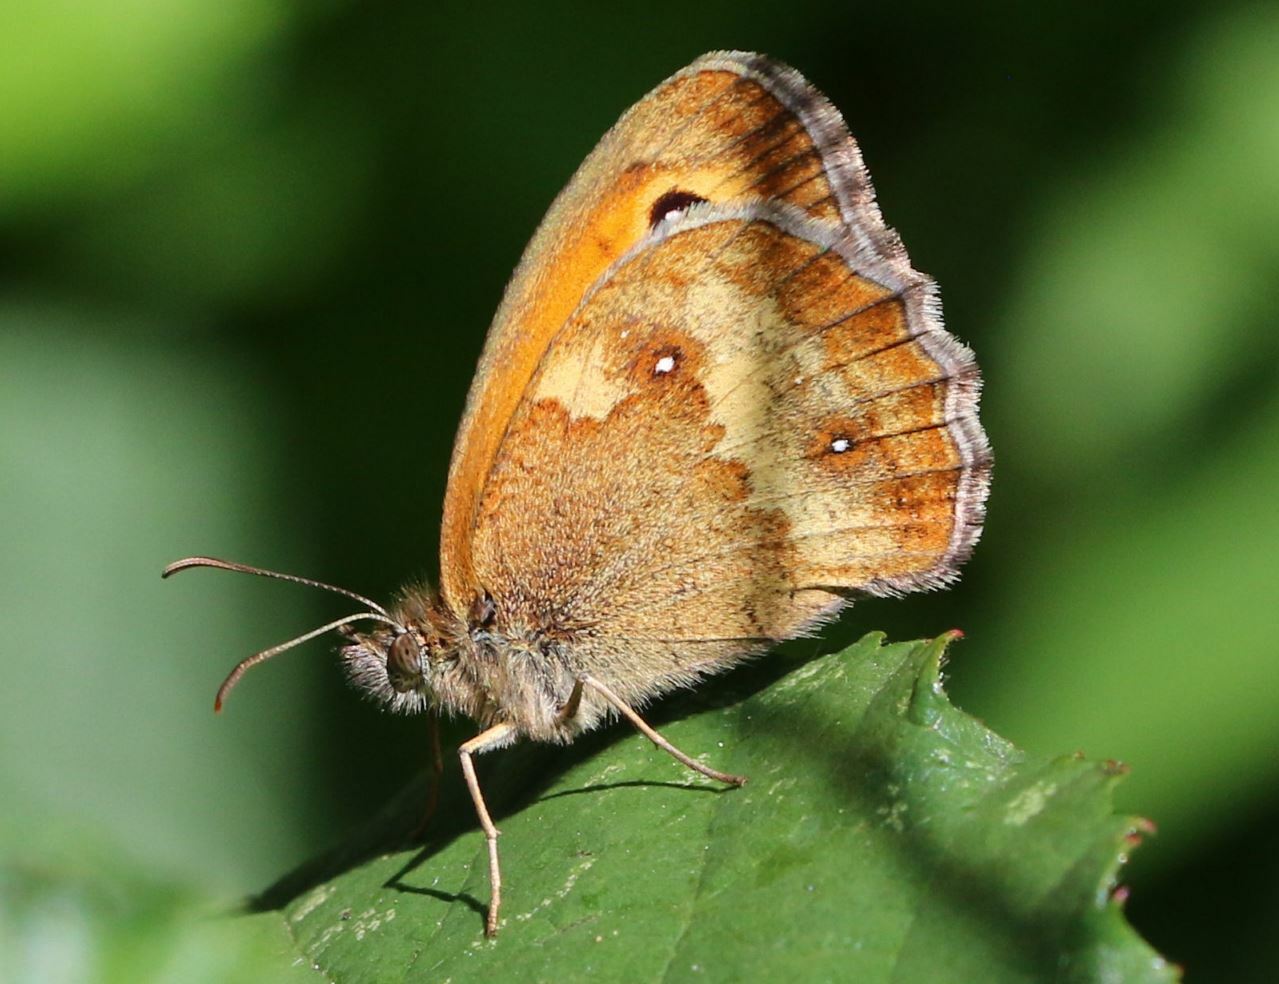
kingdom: Animalia
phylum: Arthropoda
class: Insecta
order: Lepidoptera
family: Nymphalidae
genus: Pyronia
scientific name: Pyronia tithonus
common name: Gatekeeper
